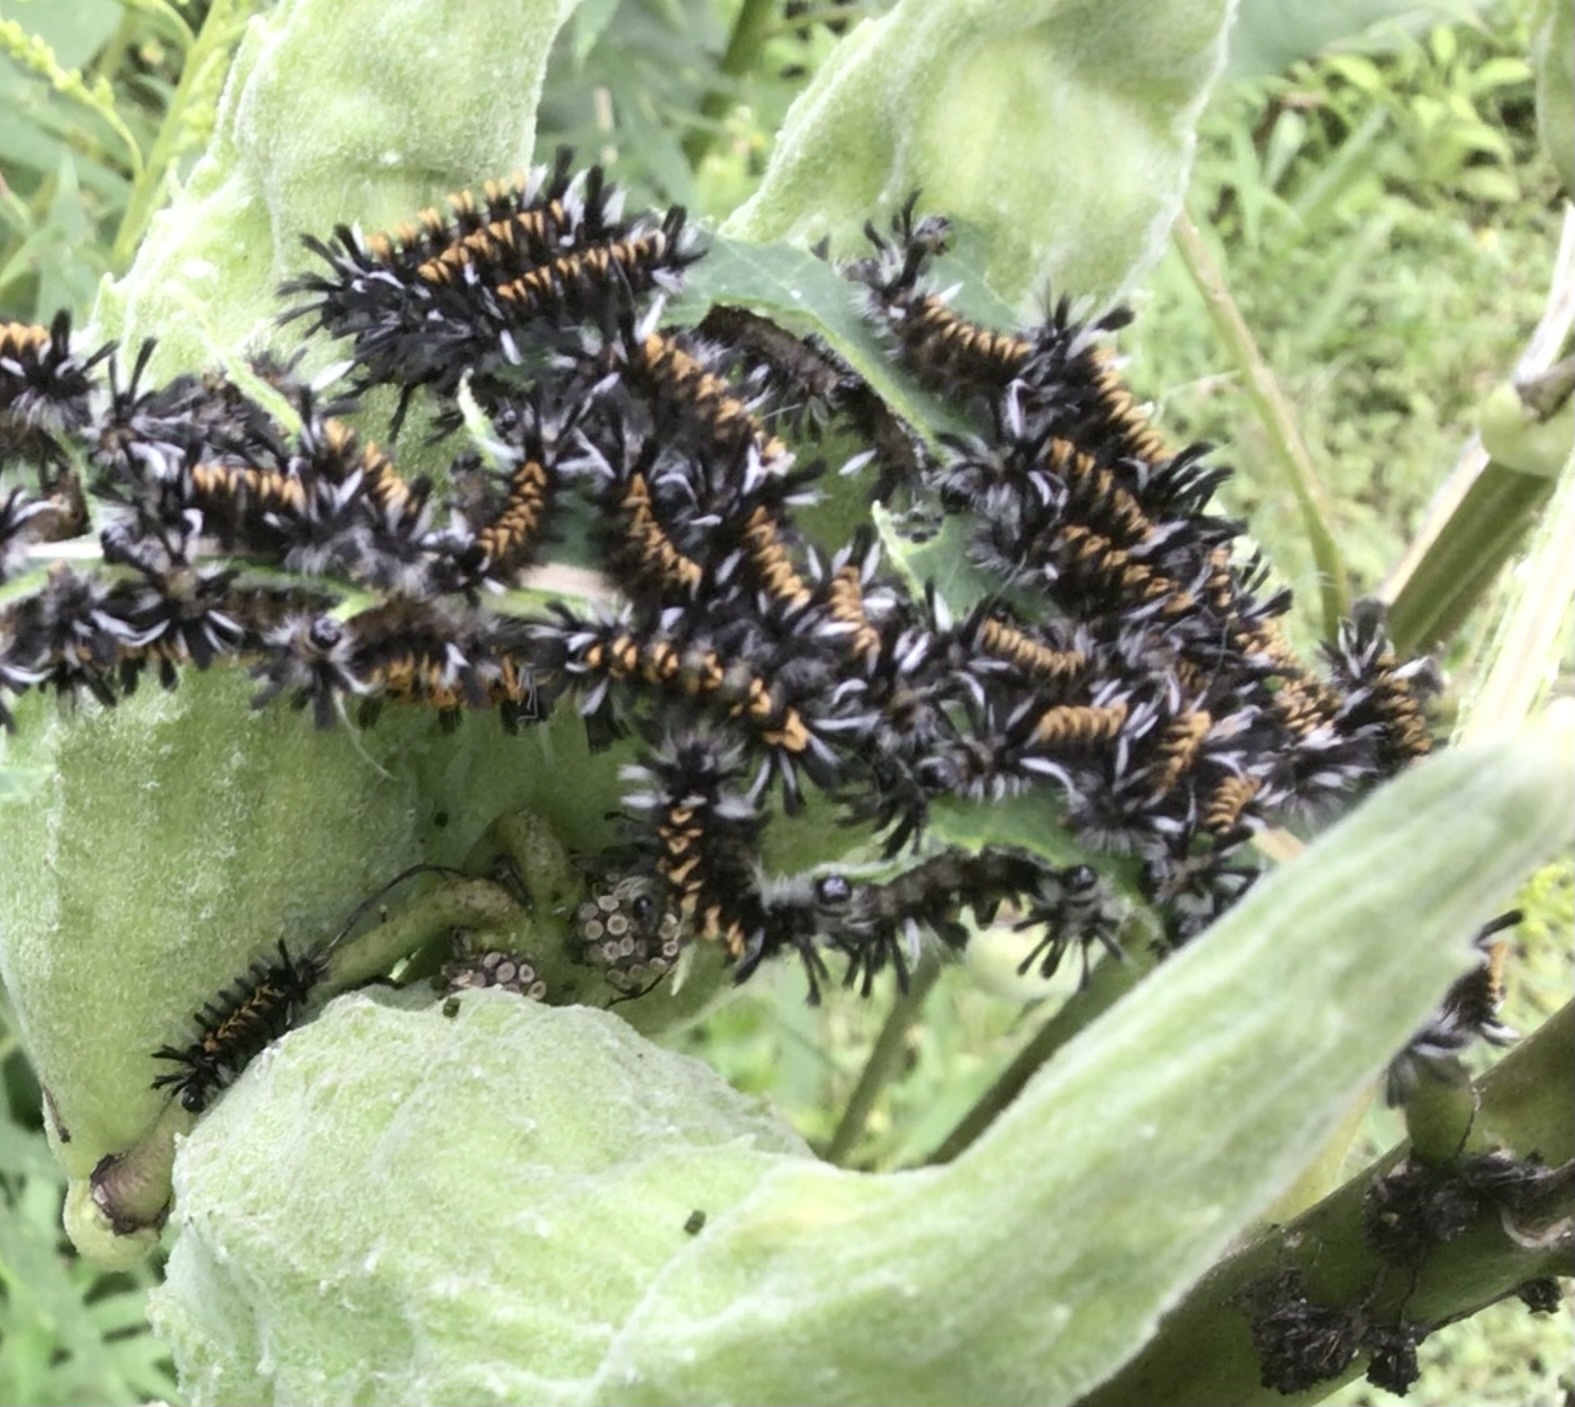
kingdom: Animalia
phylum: Arthropoda
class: Insecta
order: Lepidoptera
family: Erebidae
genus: Euchaetes
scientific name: Euchaetes egle
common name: Milkweed tussock moth
